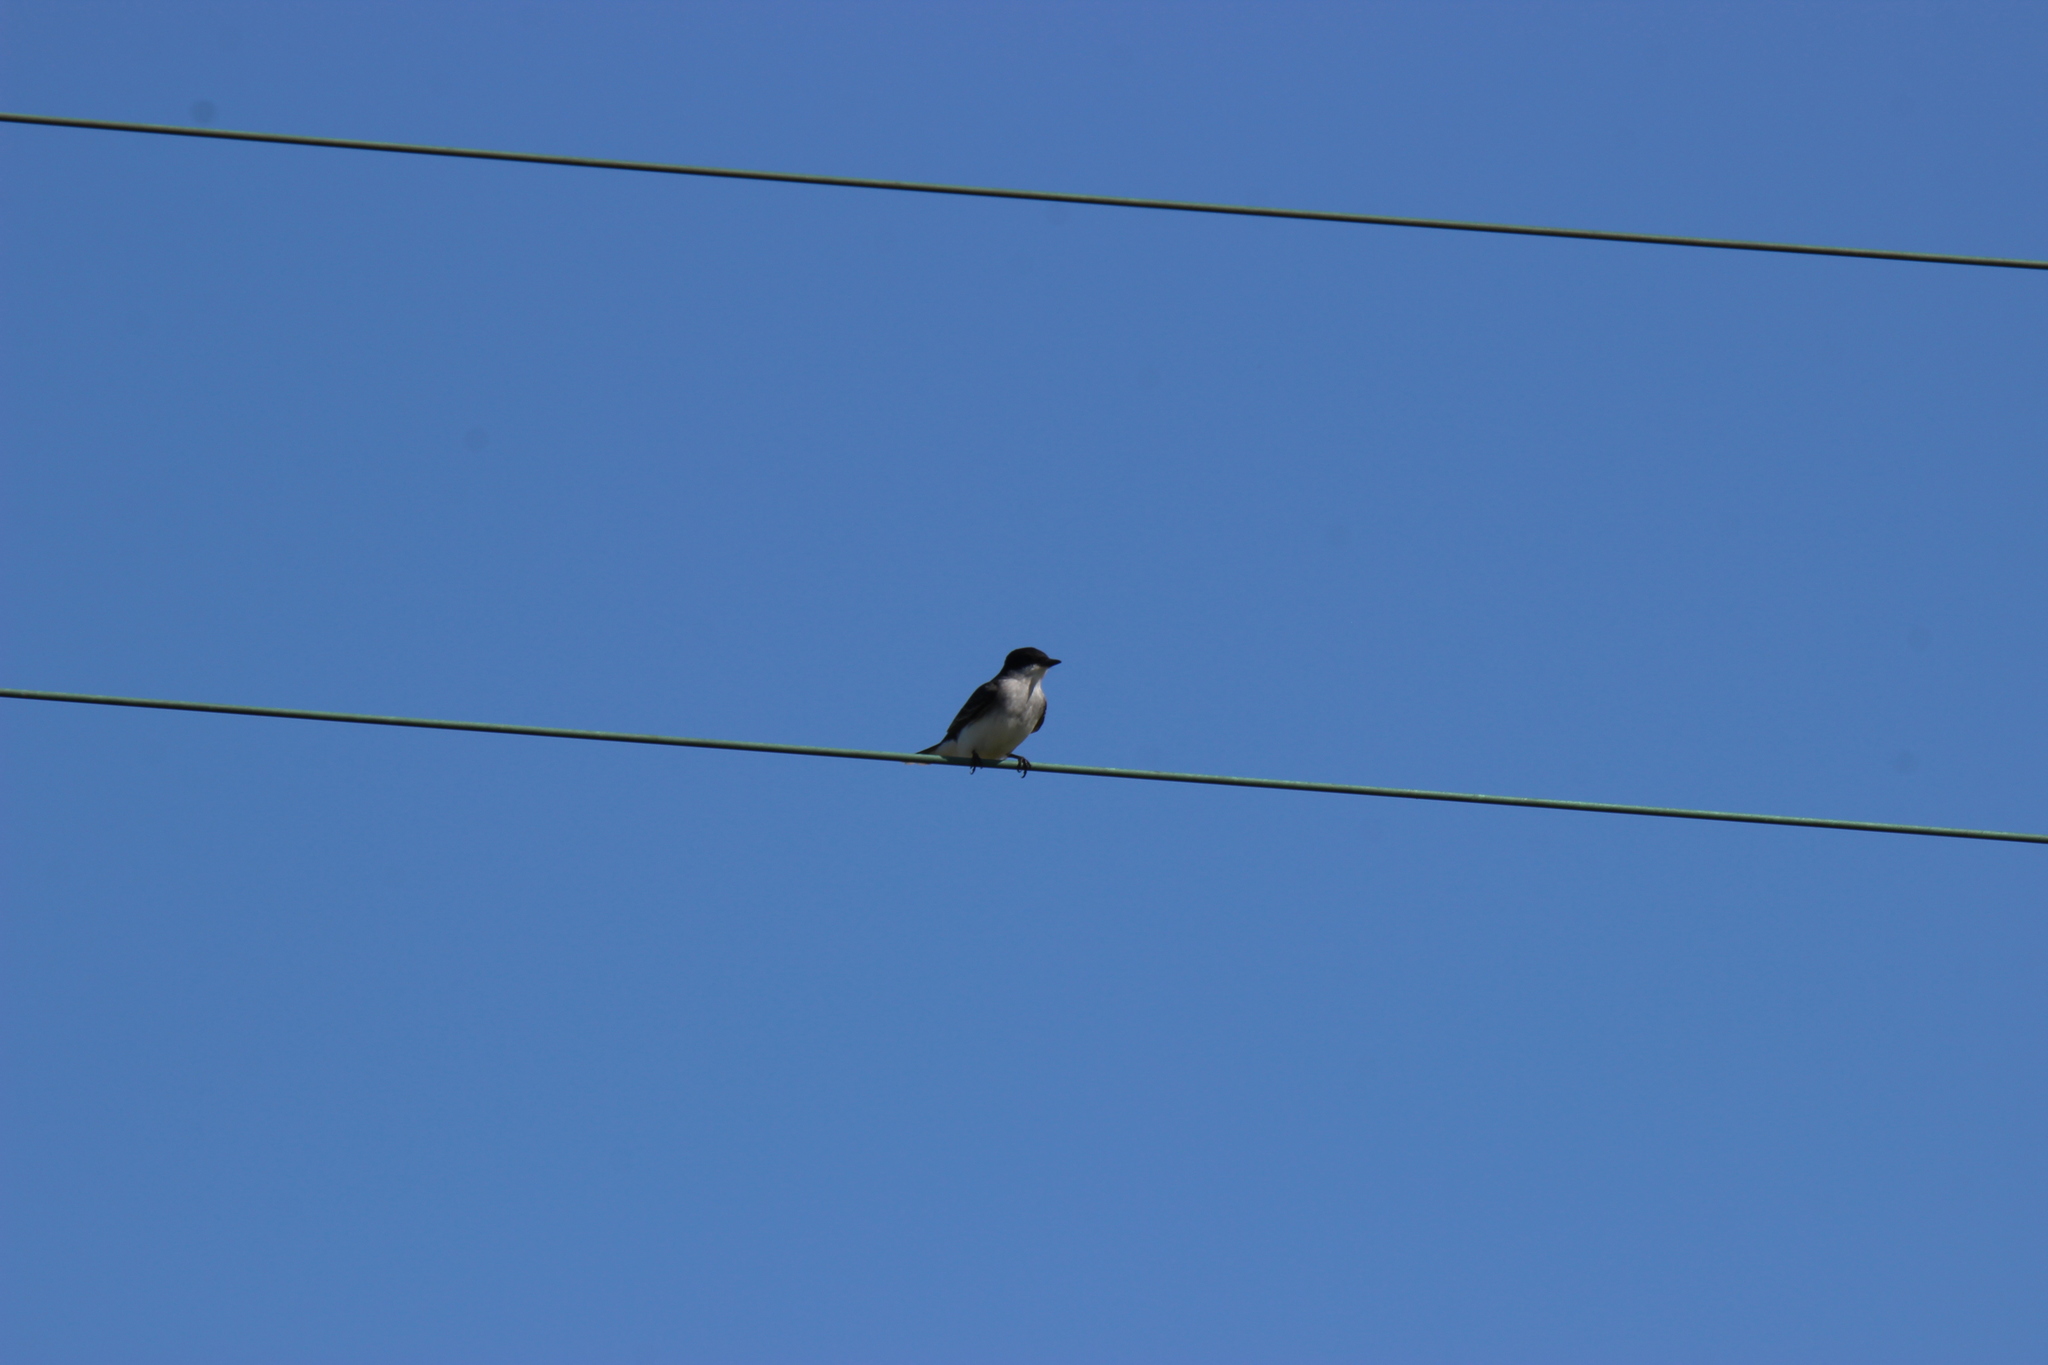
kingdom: Animalia
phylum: Chordata
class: Aves
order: Passeriformes
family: Tyrannidae
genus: Tyrannus
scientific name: Tyrannus tyrannus
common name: Eastern kingbird
